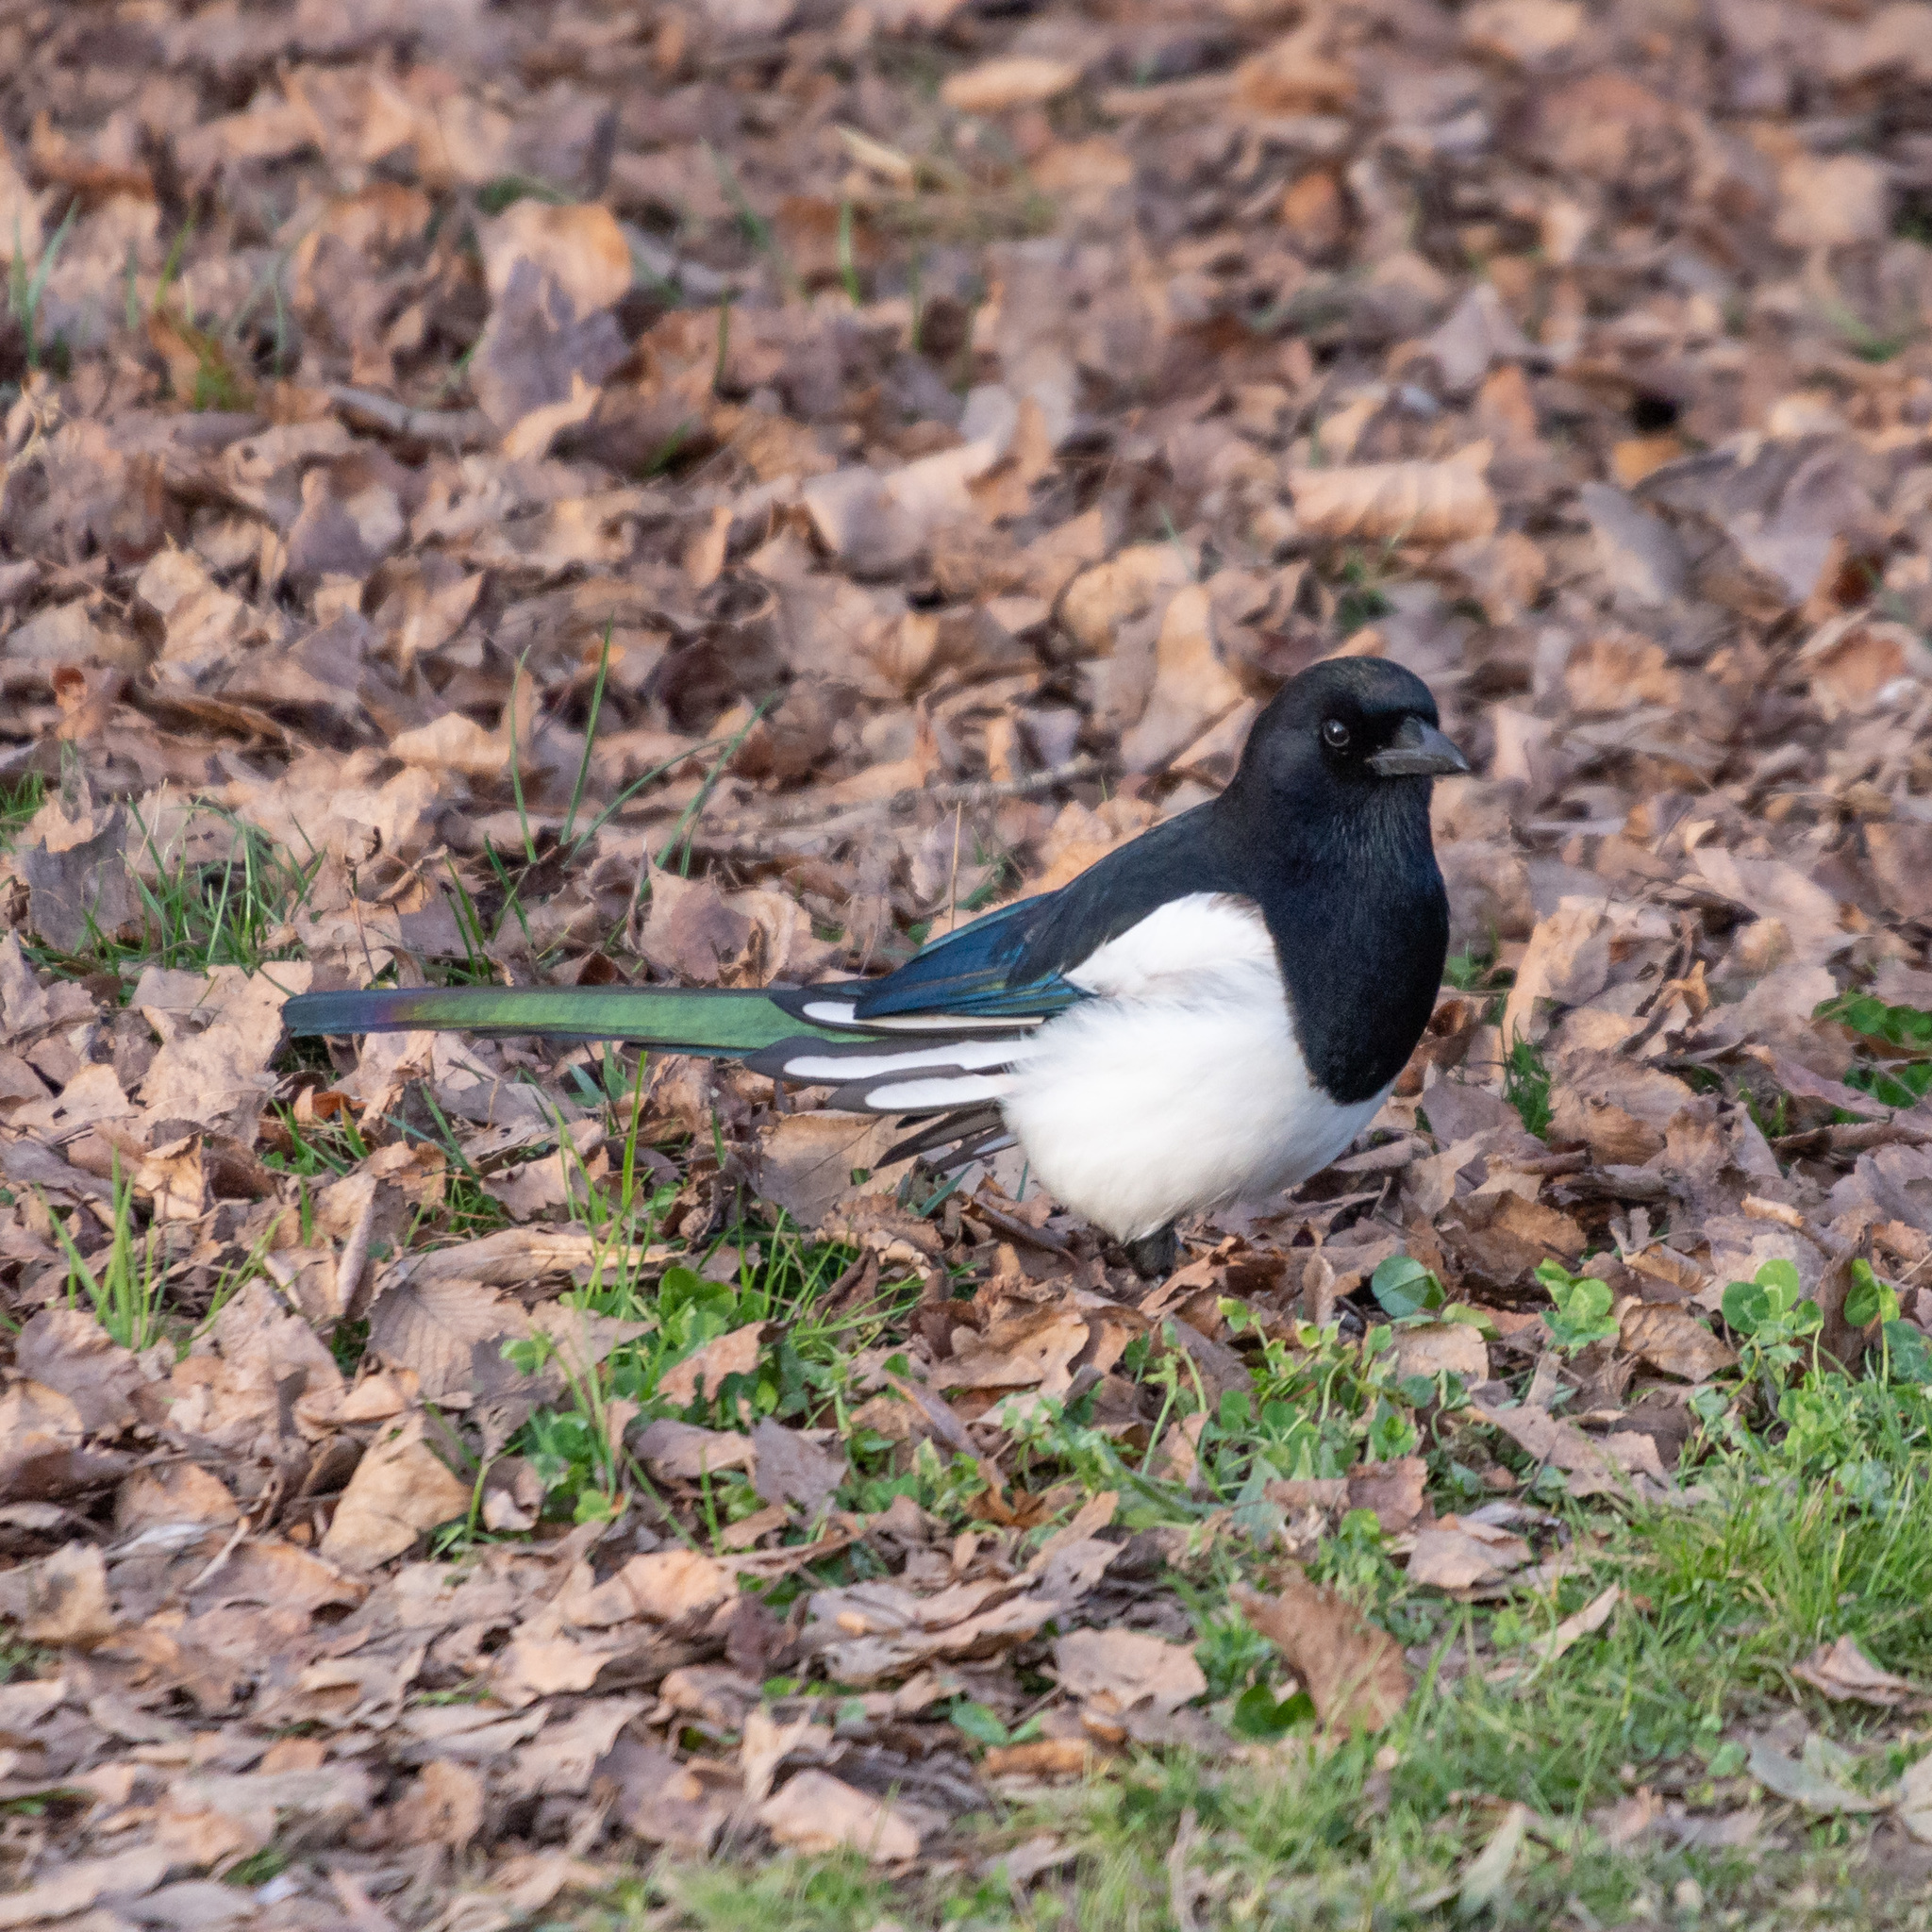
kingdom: Animalia
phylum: Chordata
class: Aves
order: Passeriformes
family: Corvidae
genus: Pica
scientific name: Pica pica
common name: Eurasian magpie
